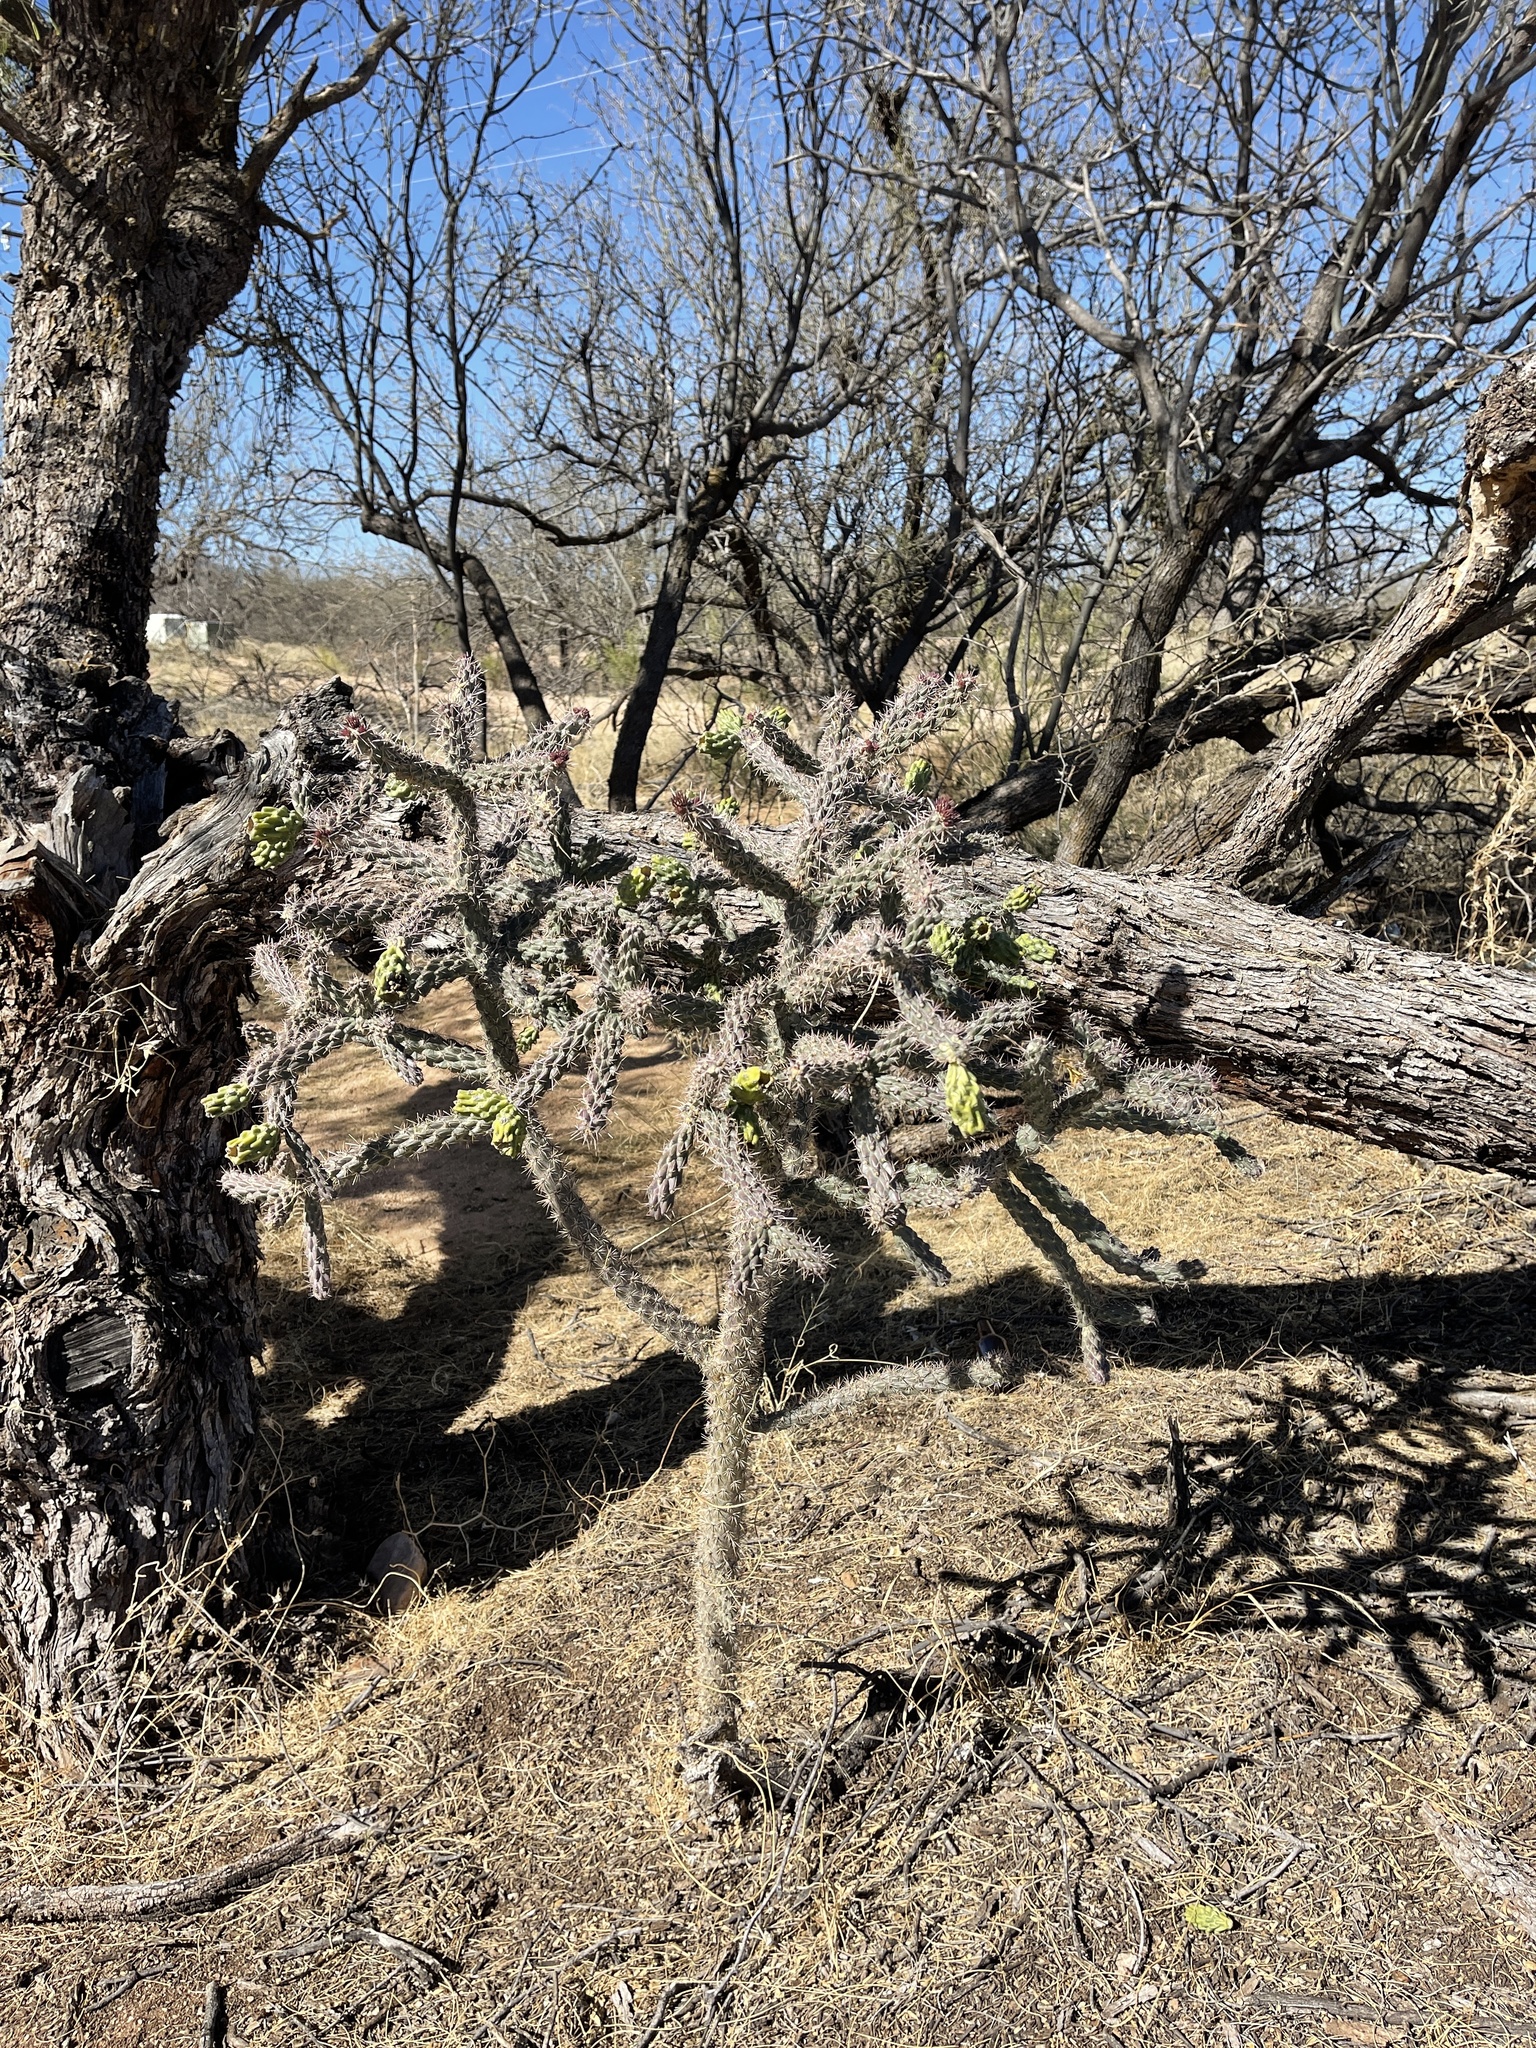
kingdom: Plantae
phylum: Tracheophyta
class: Magnoliopsida
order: Caryophyllales
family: Cactaceae
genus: Cylindropuntia
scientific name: Cylindropuntia imbricata
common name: Candelabrum cactus
